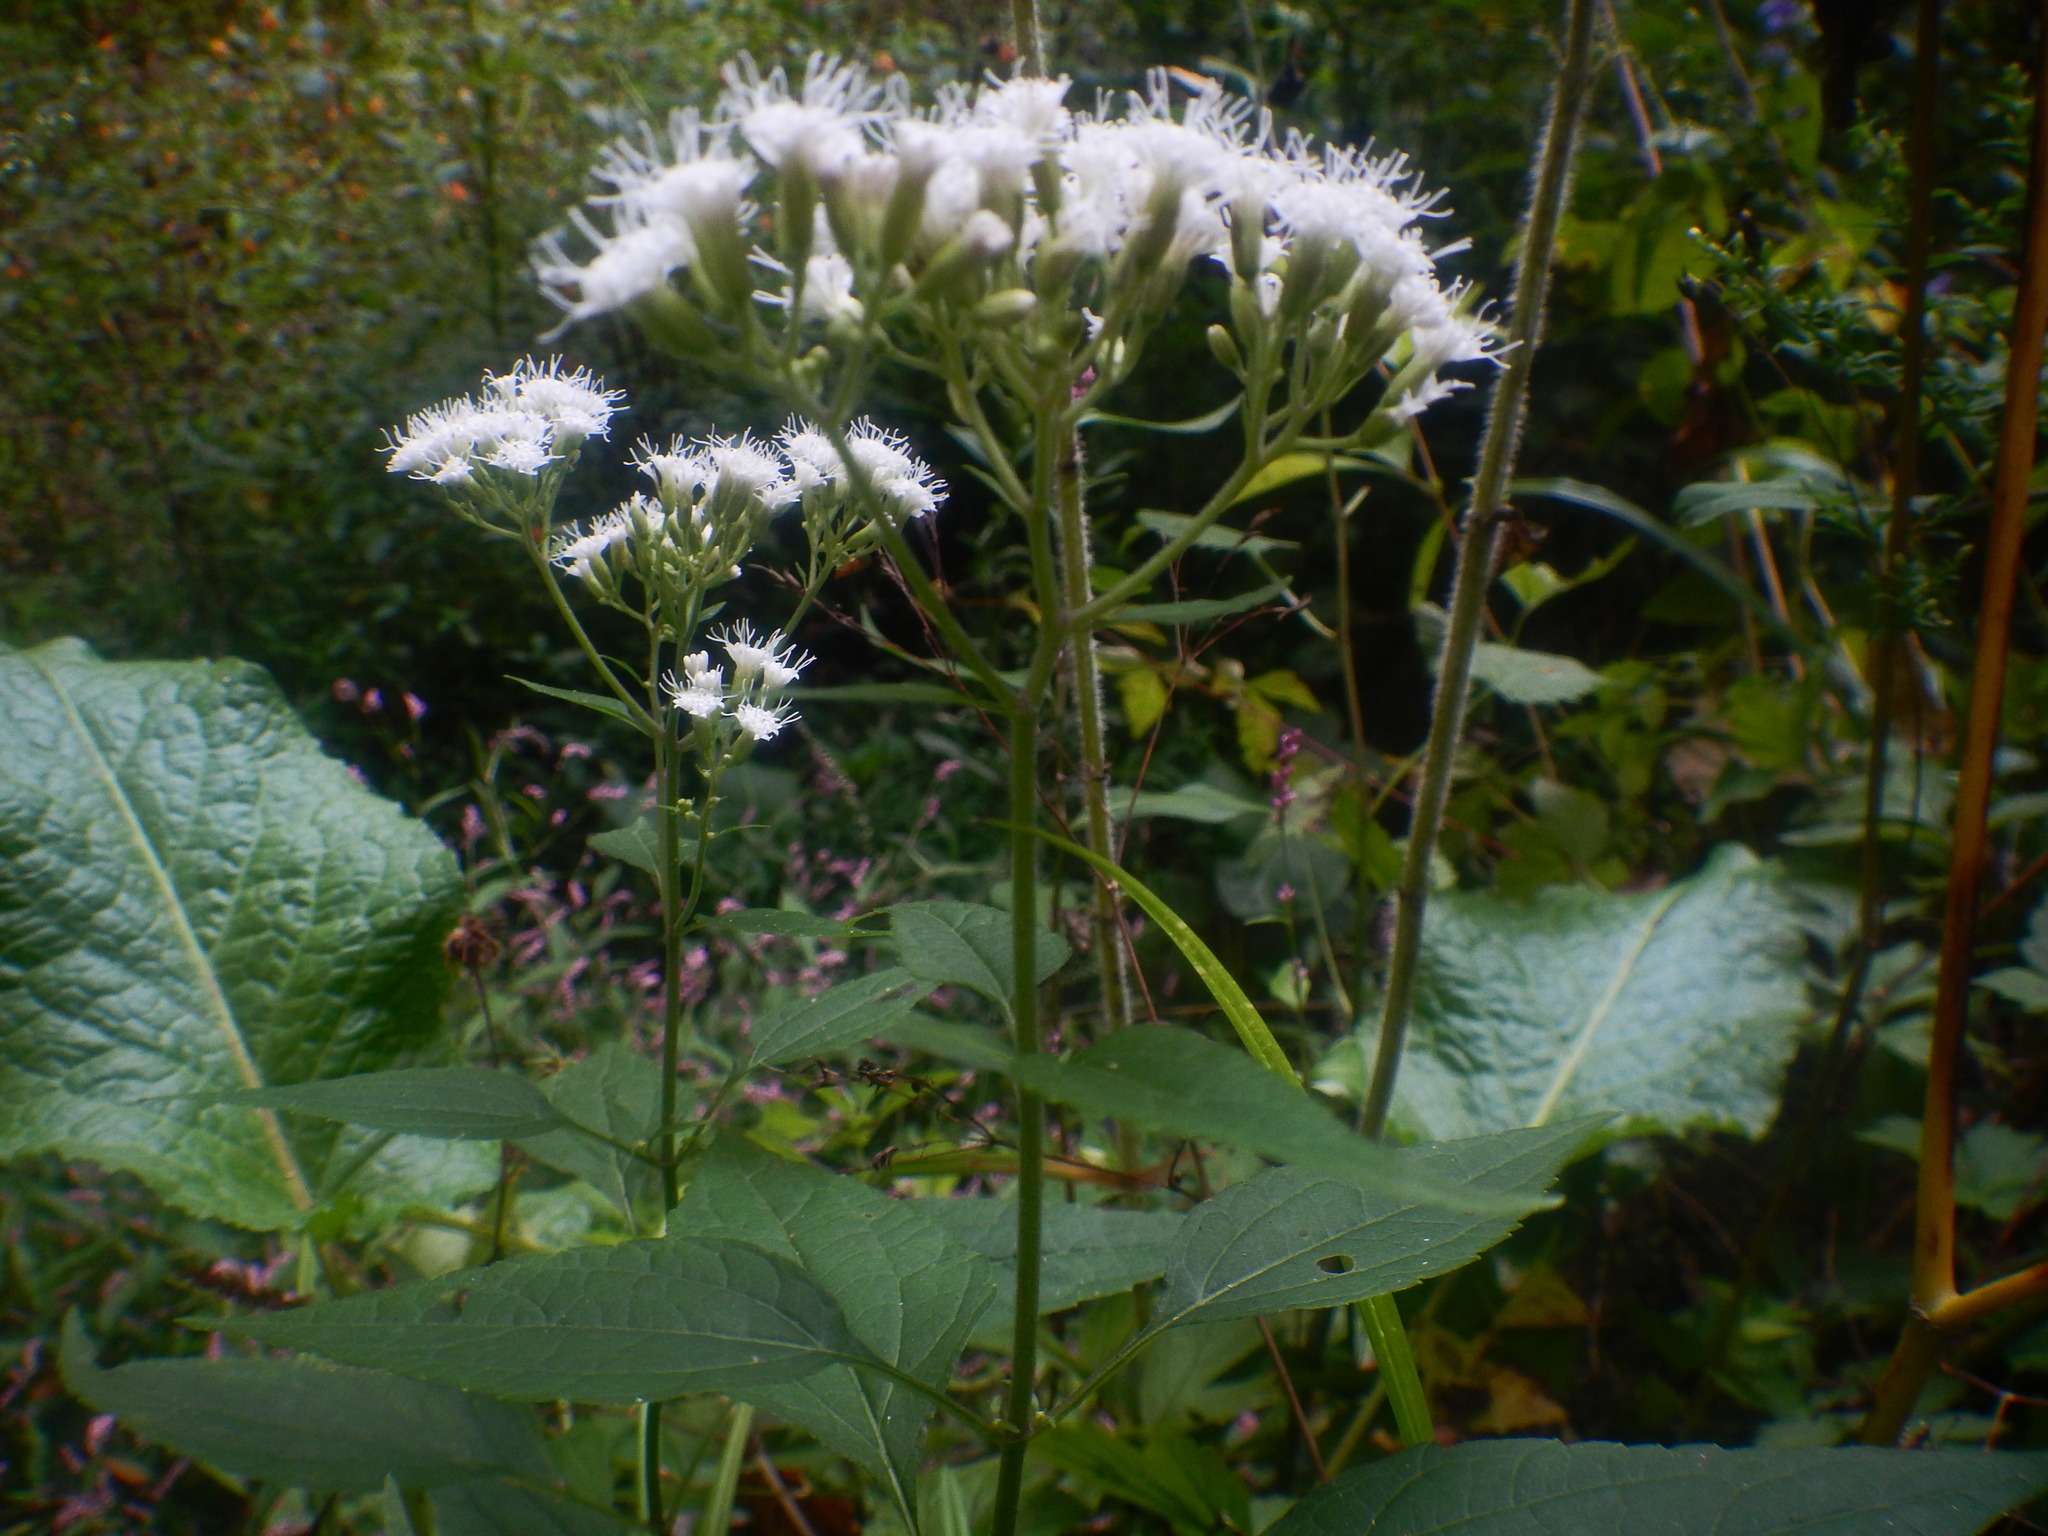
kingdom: Plantae
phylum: Tracheophyta
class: Magnoliopsida
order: Asterales
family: Asteraceae
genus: Ageratina
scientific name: Ageratina altissima
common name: White snakeroot
